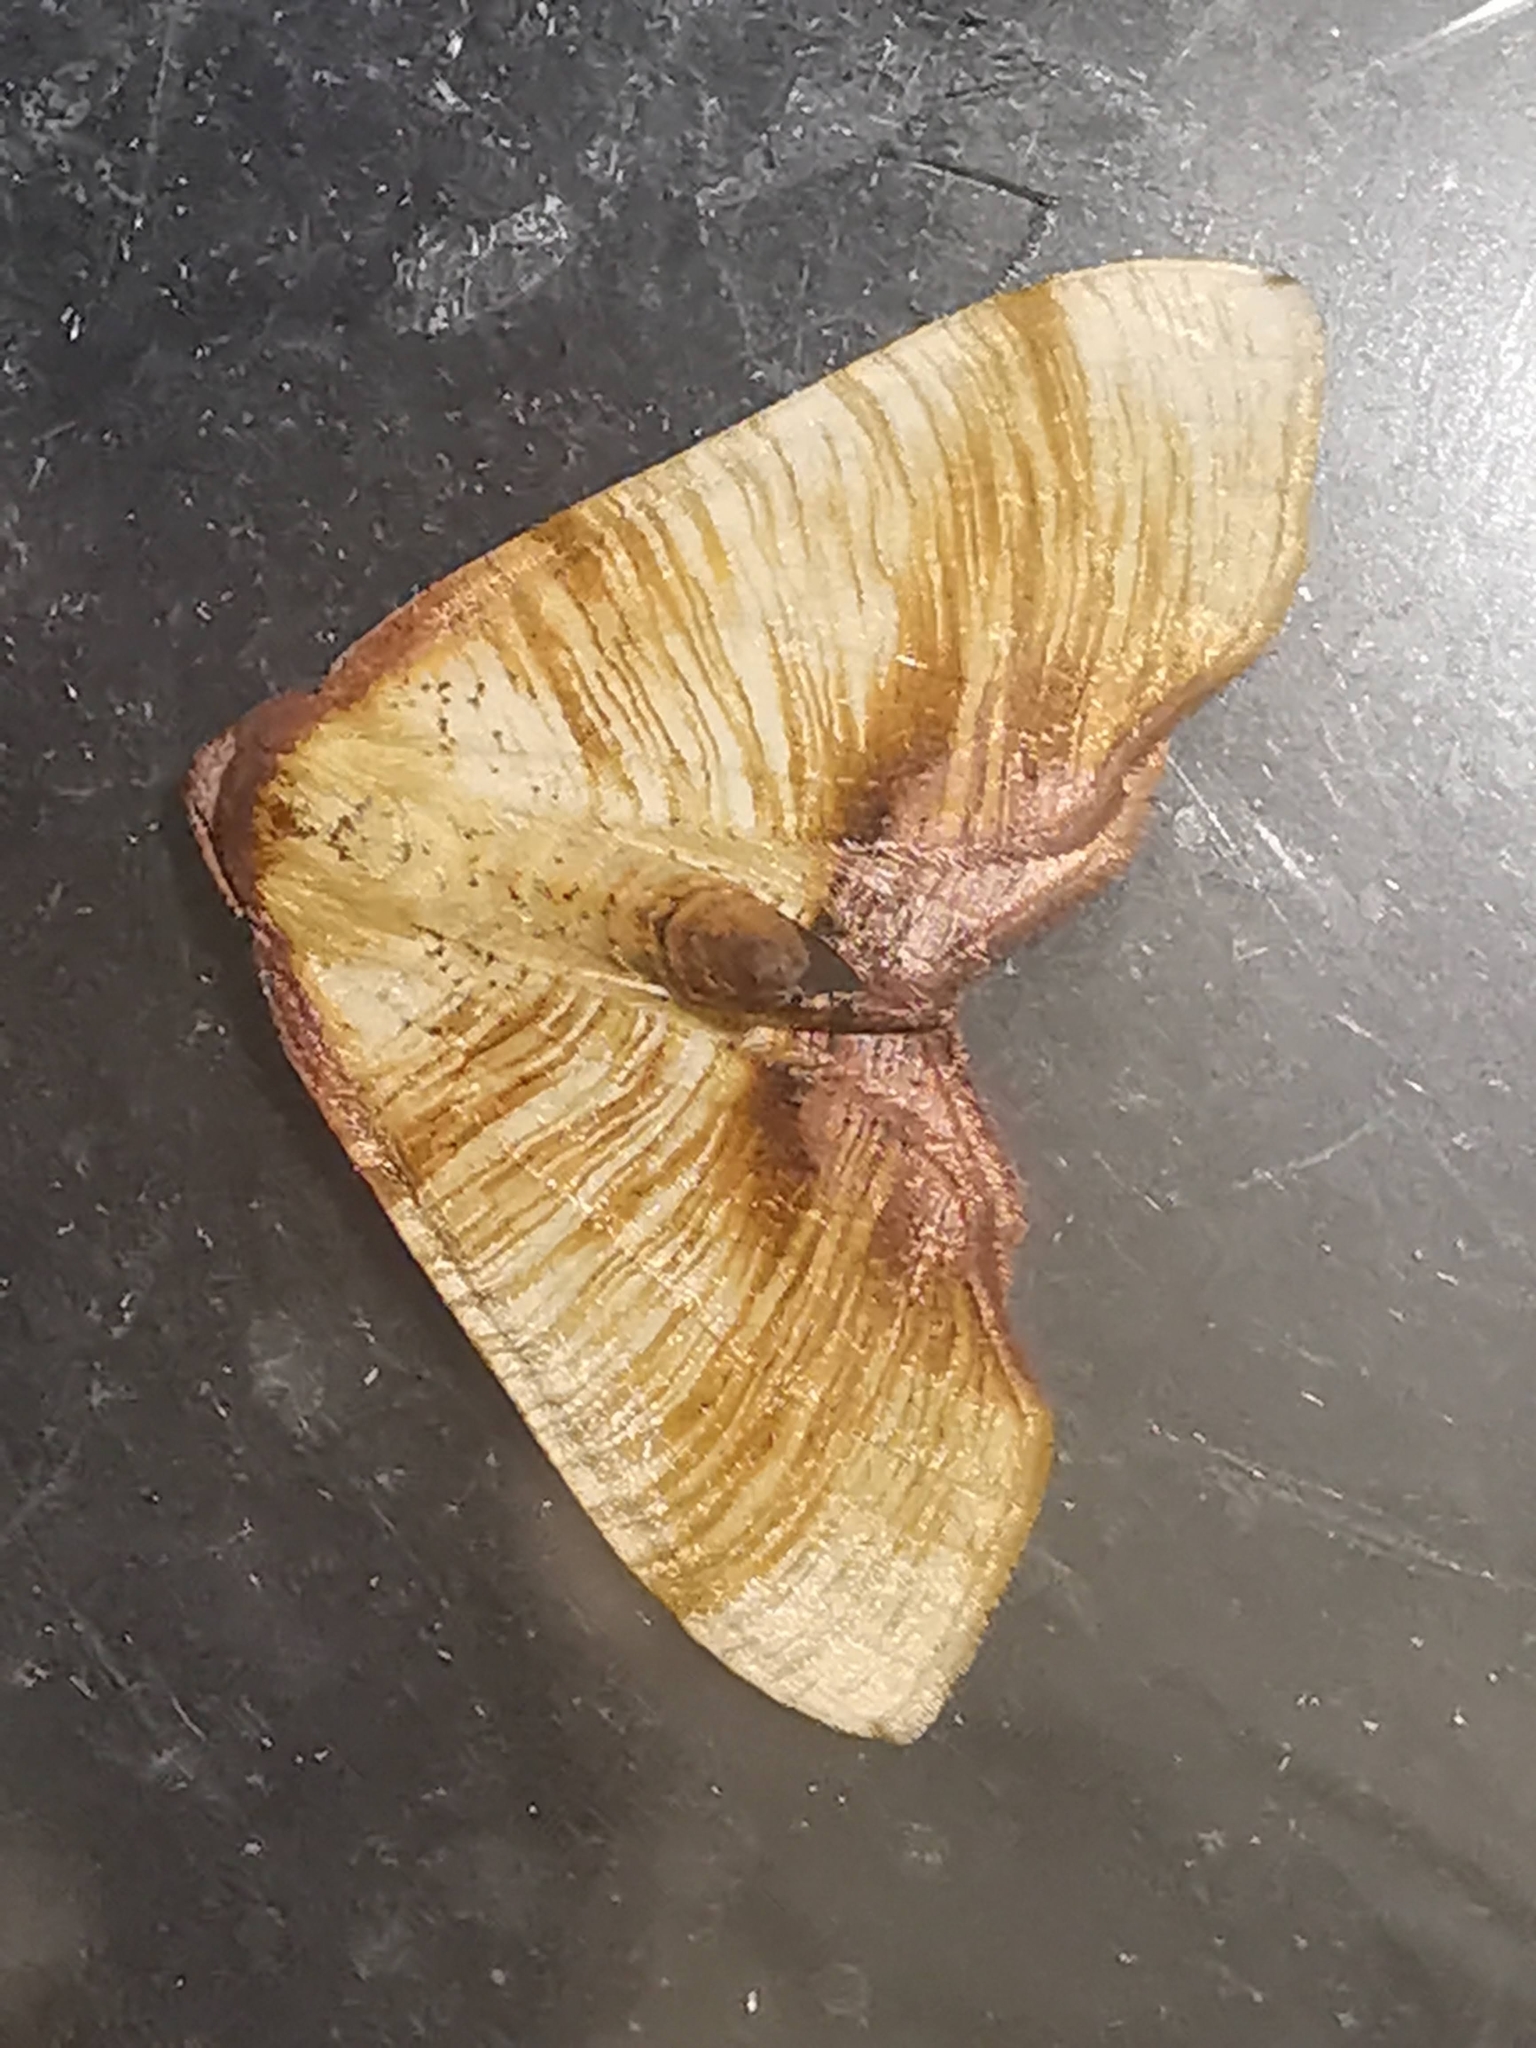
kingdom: Animalia
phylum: Arthropoda
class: Insecta
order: Lepidoptera
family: Geometridae
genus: Plagodis
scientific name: Plagodis dolabraria
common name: Scorched wing
